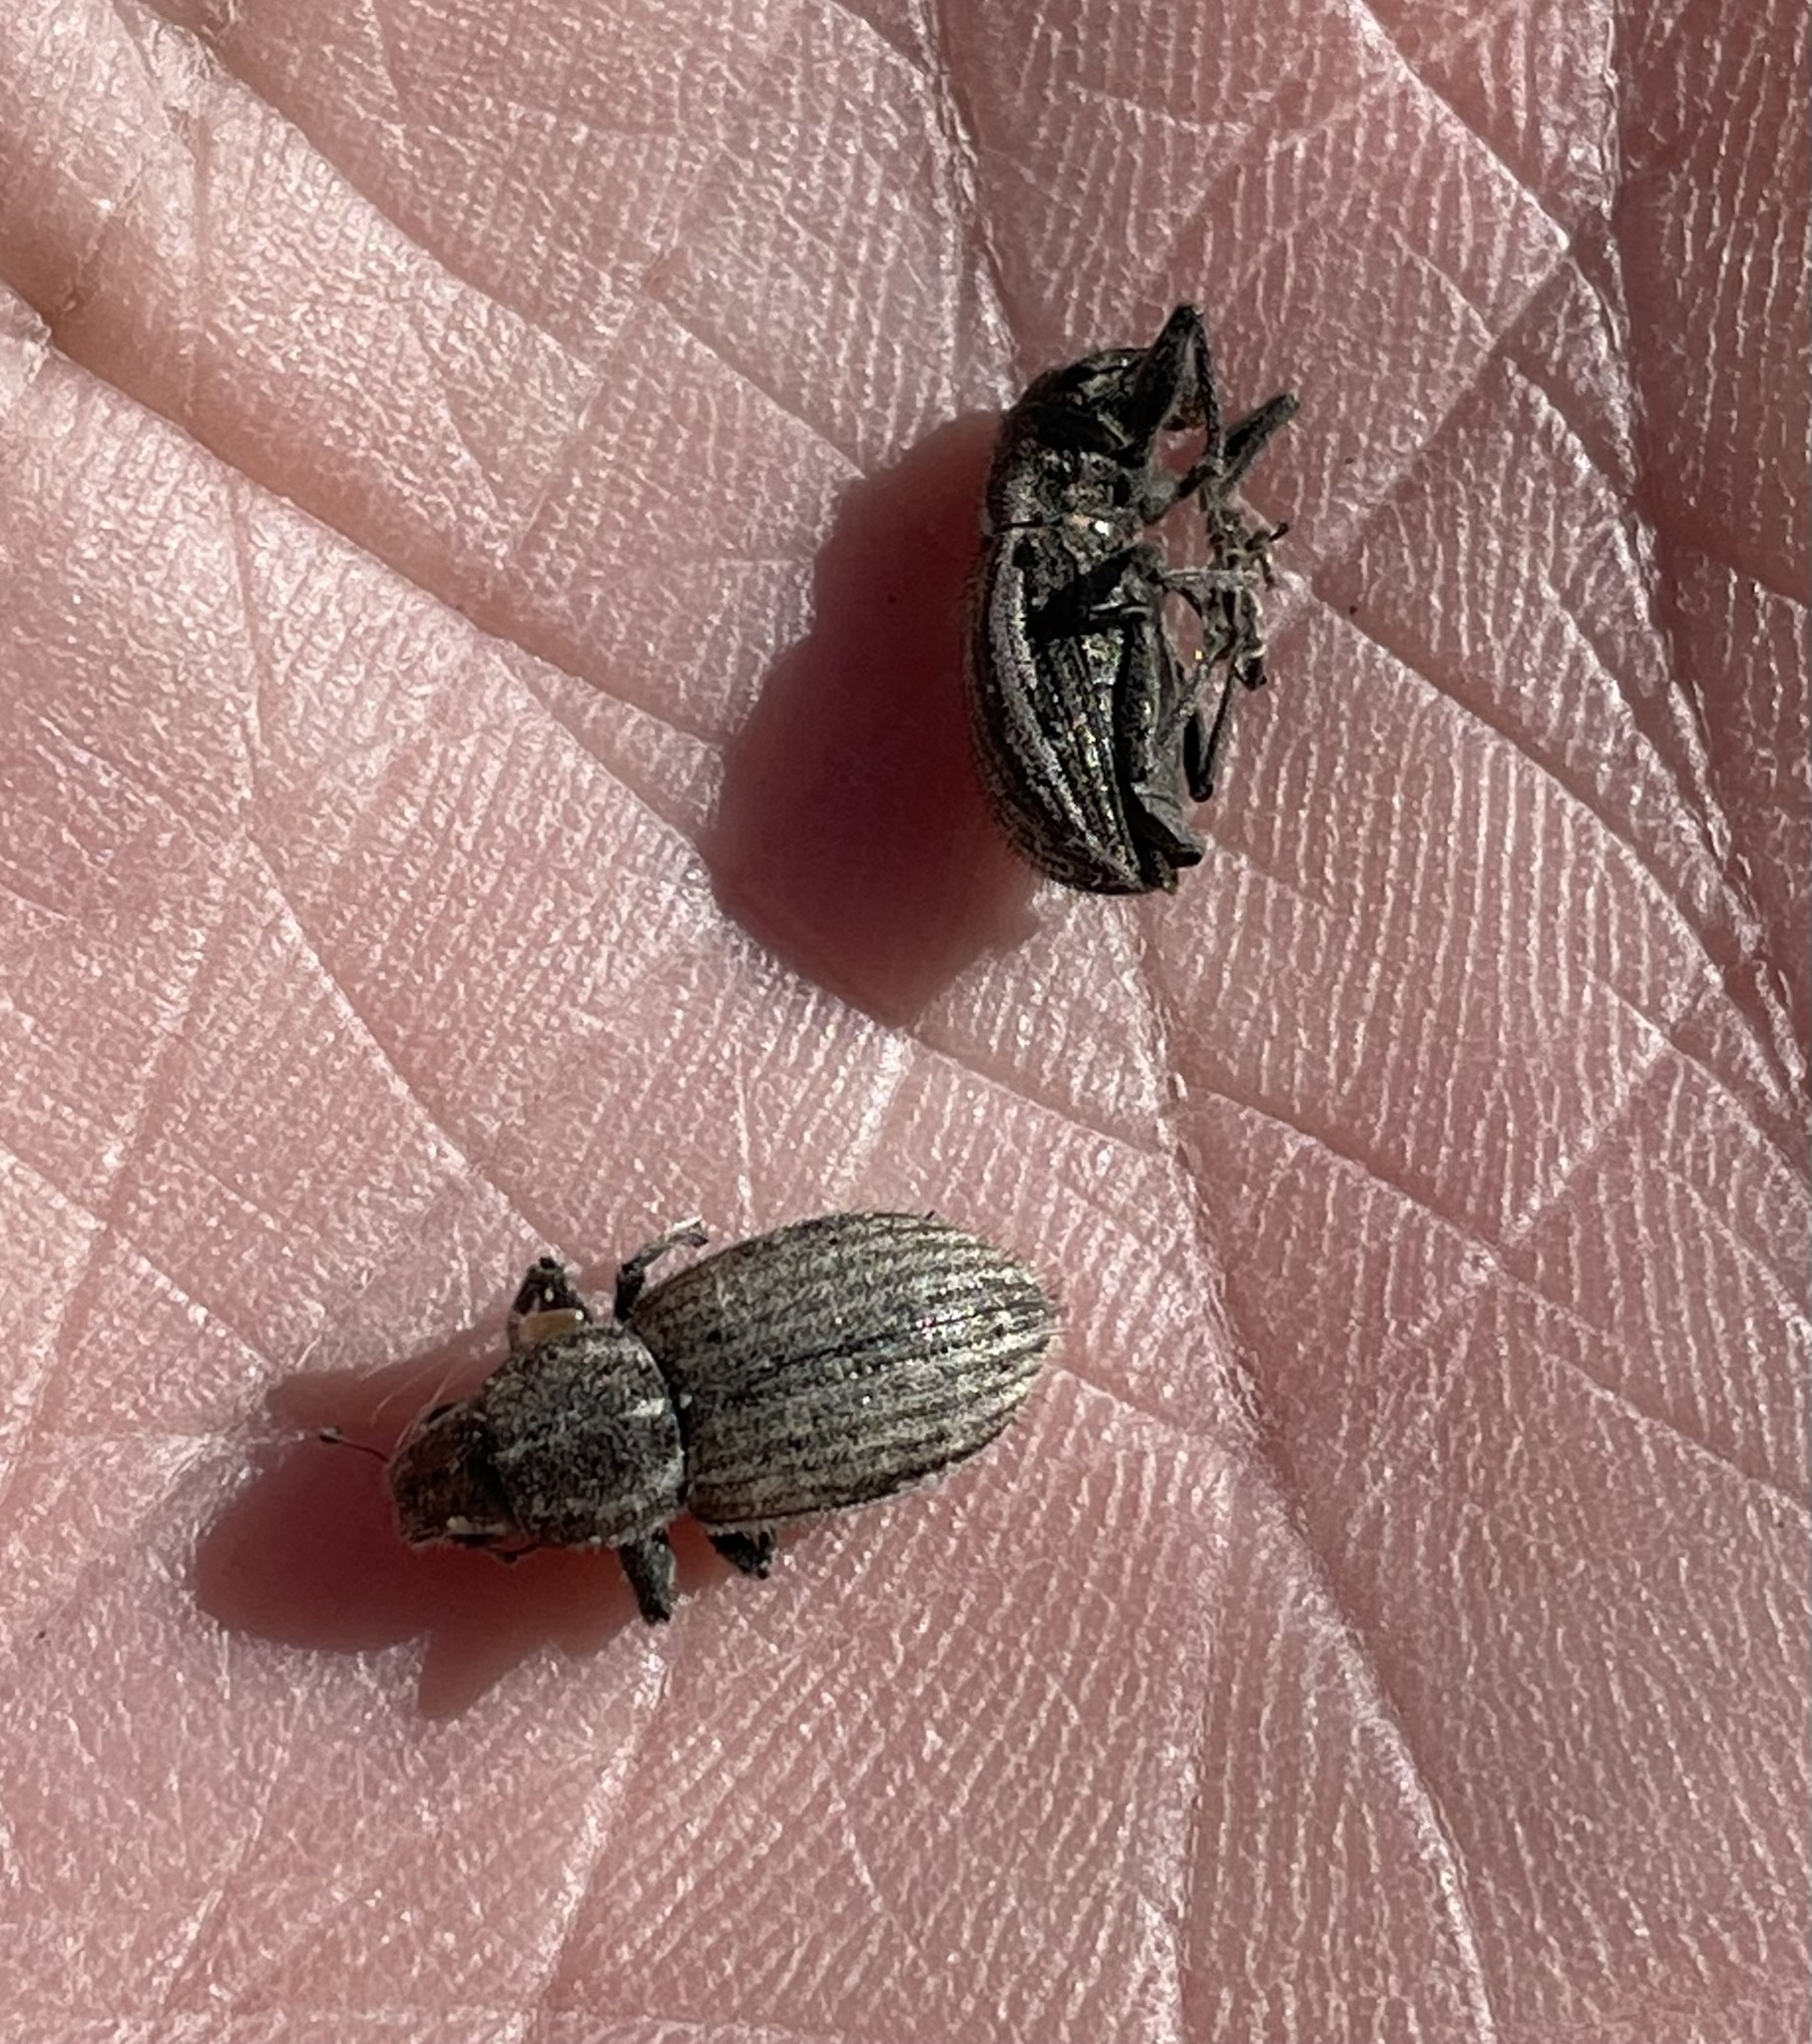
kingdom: Animalia
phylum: Arthropoda
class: Insecta
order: Coleoptera
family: Curculionidae
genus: Naupactus
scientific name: Naupactus leucoloma
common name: Whitefringed beetle
